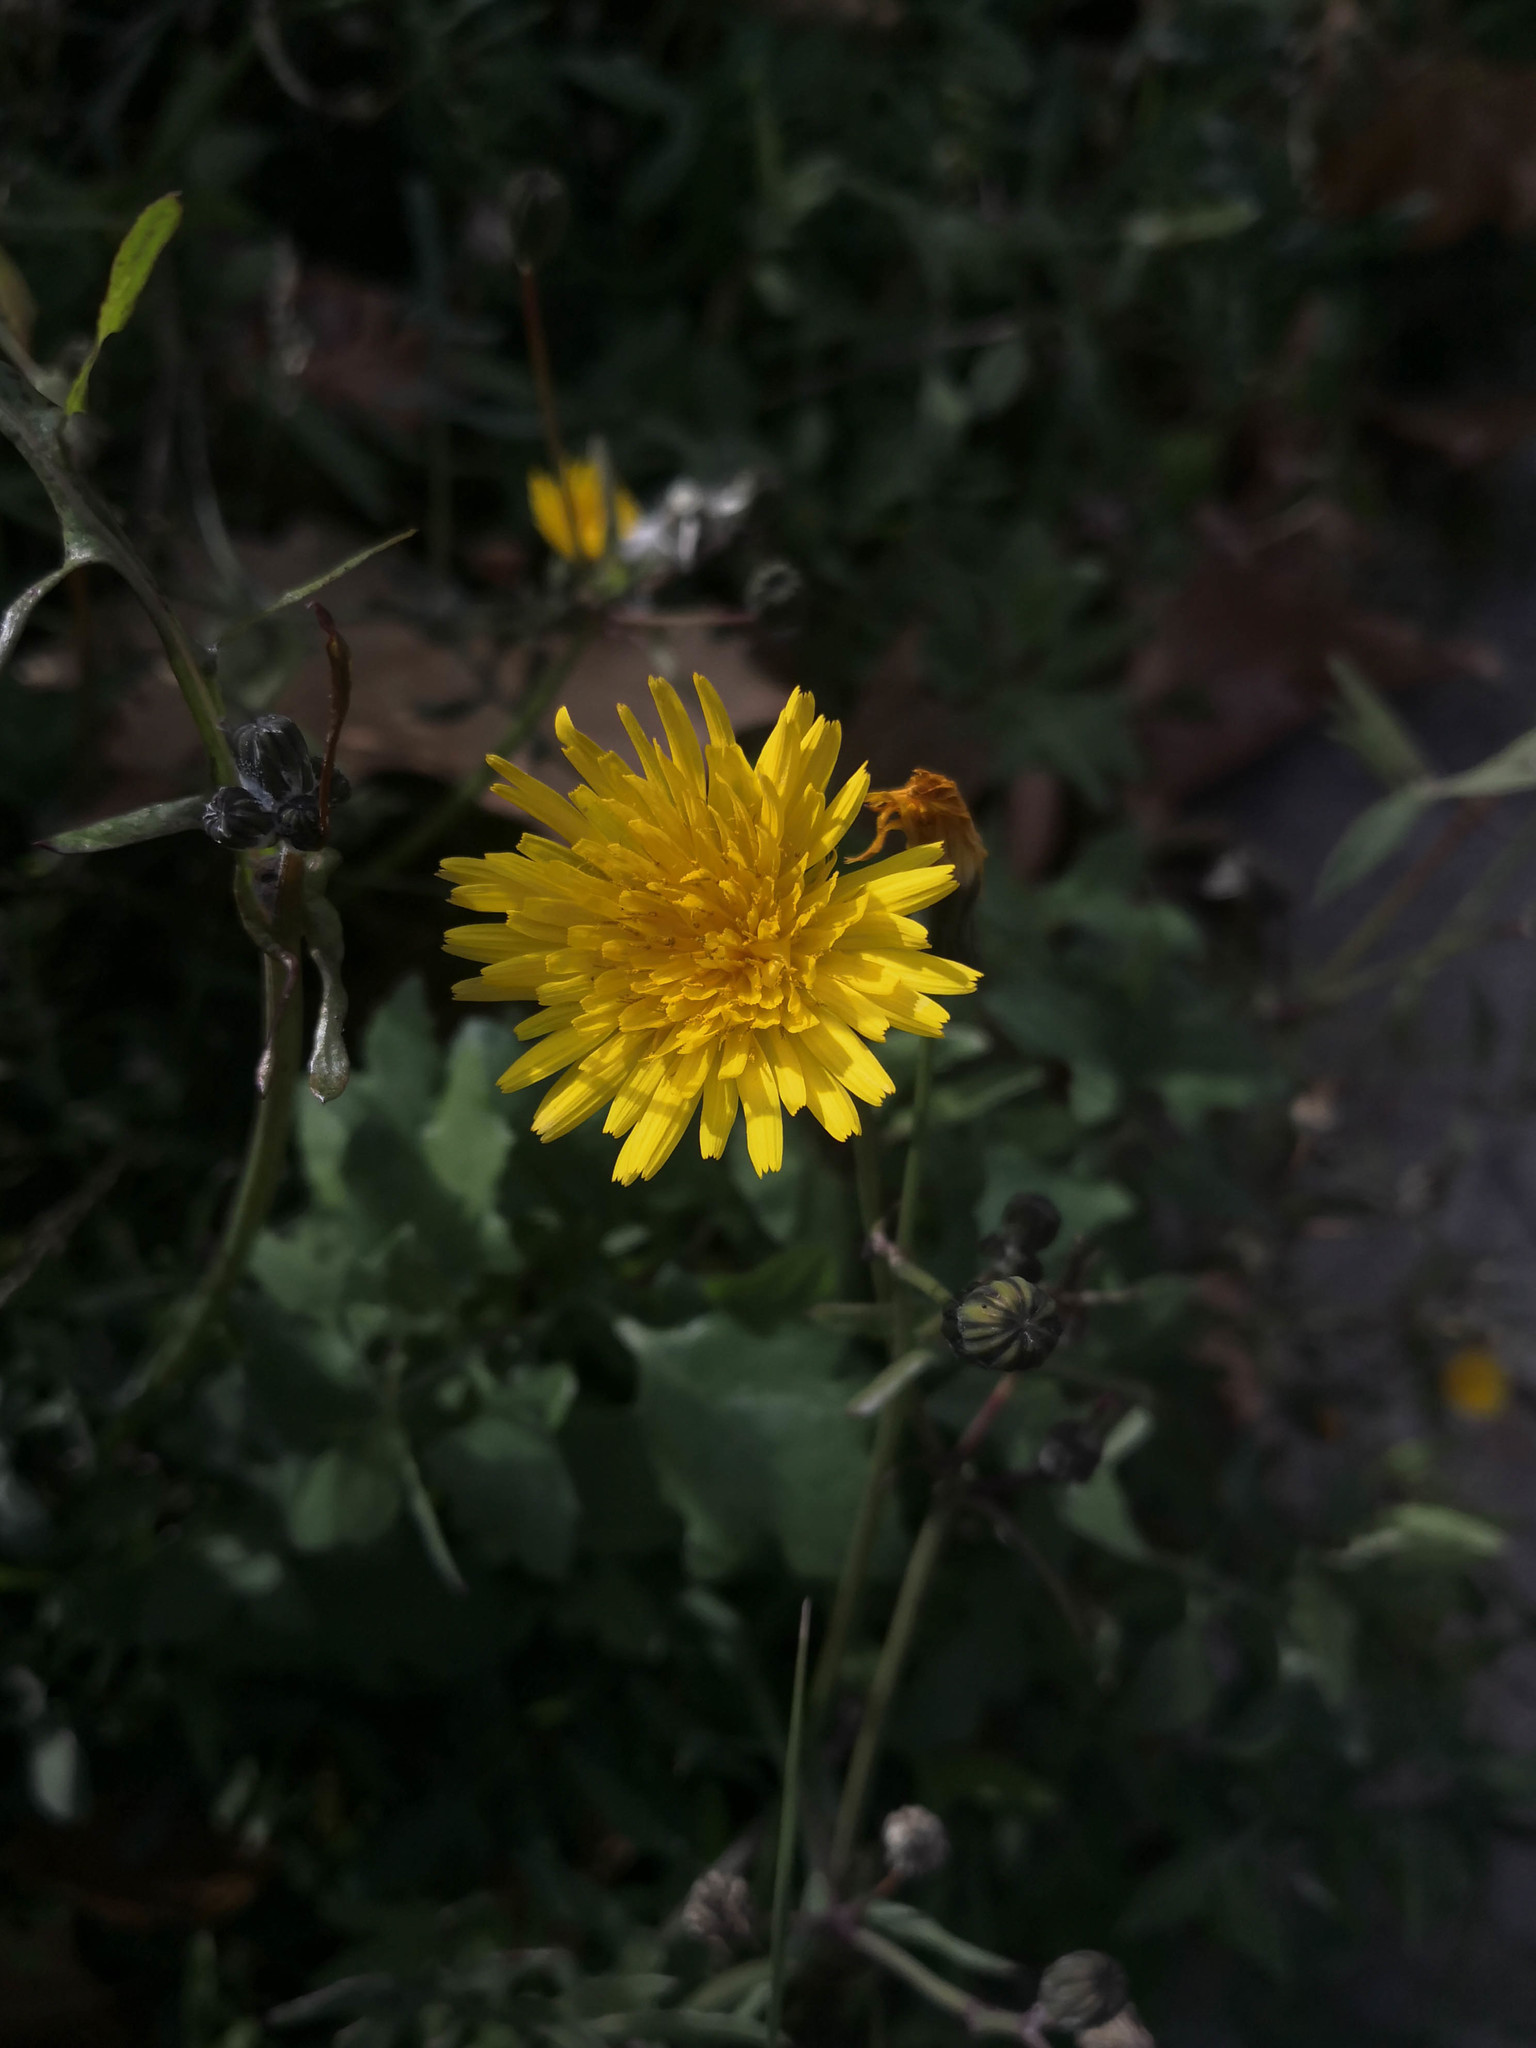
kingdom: Plantae
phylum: Tracheophyta
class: Magnoliopsida
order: Asterales
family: Asteraceae
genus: Sonchus
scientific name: Sonchus tenerrimus
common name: Clammy sowthistle
